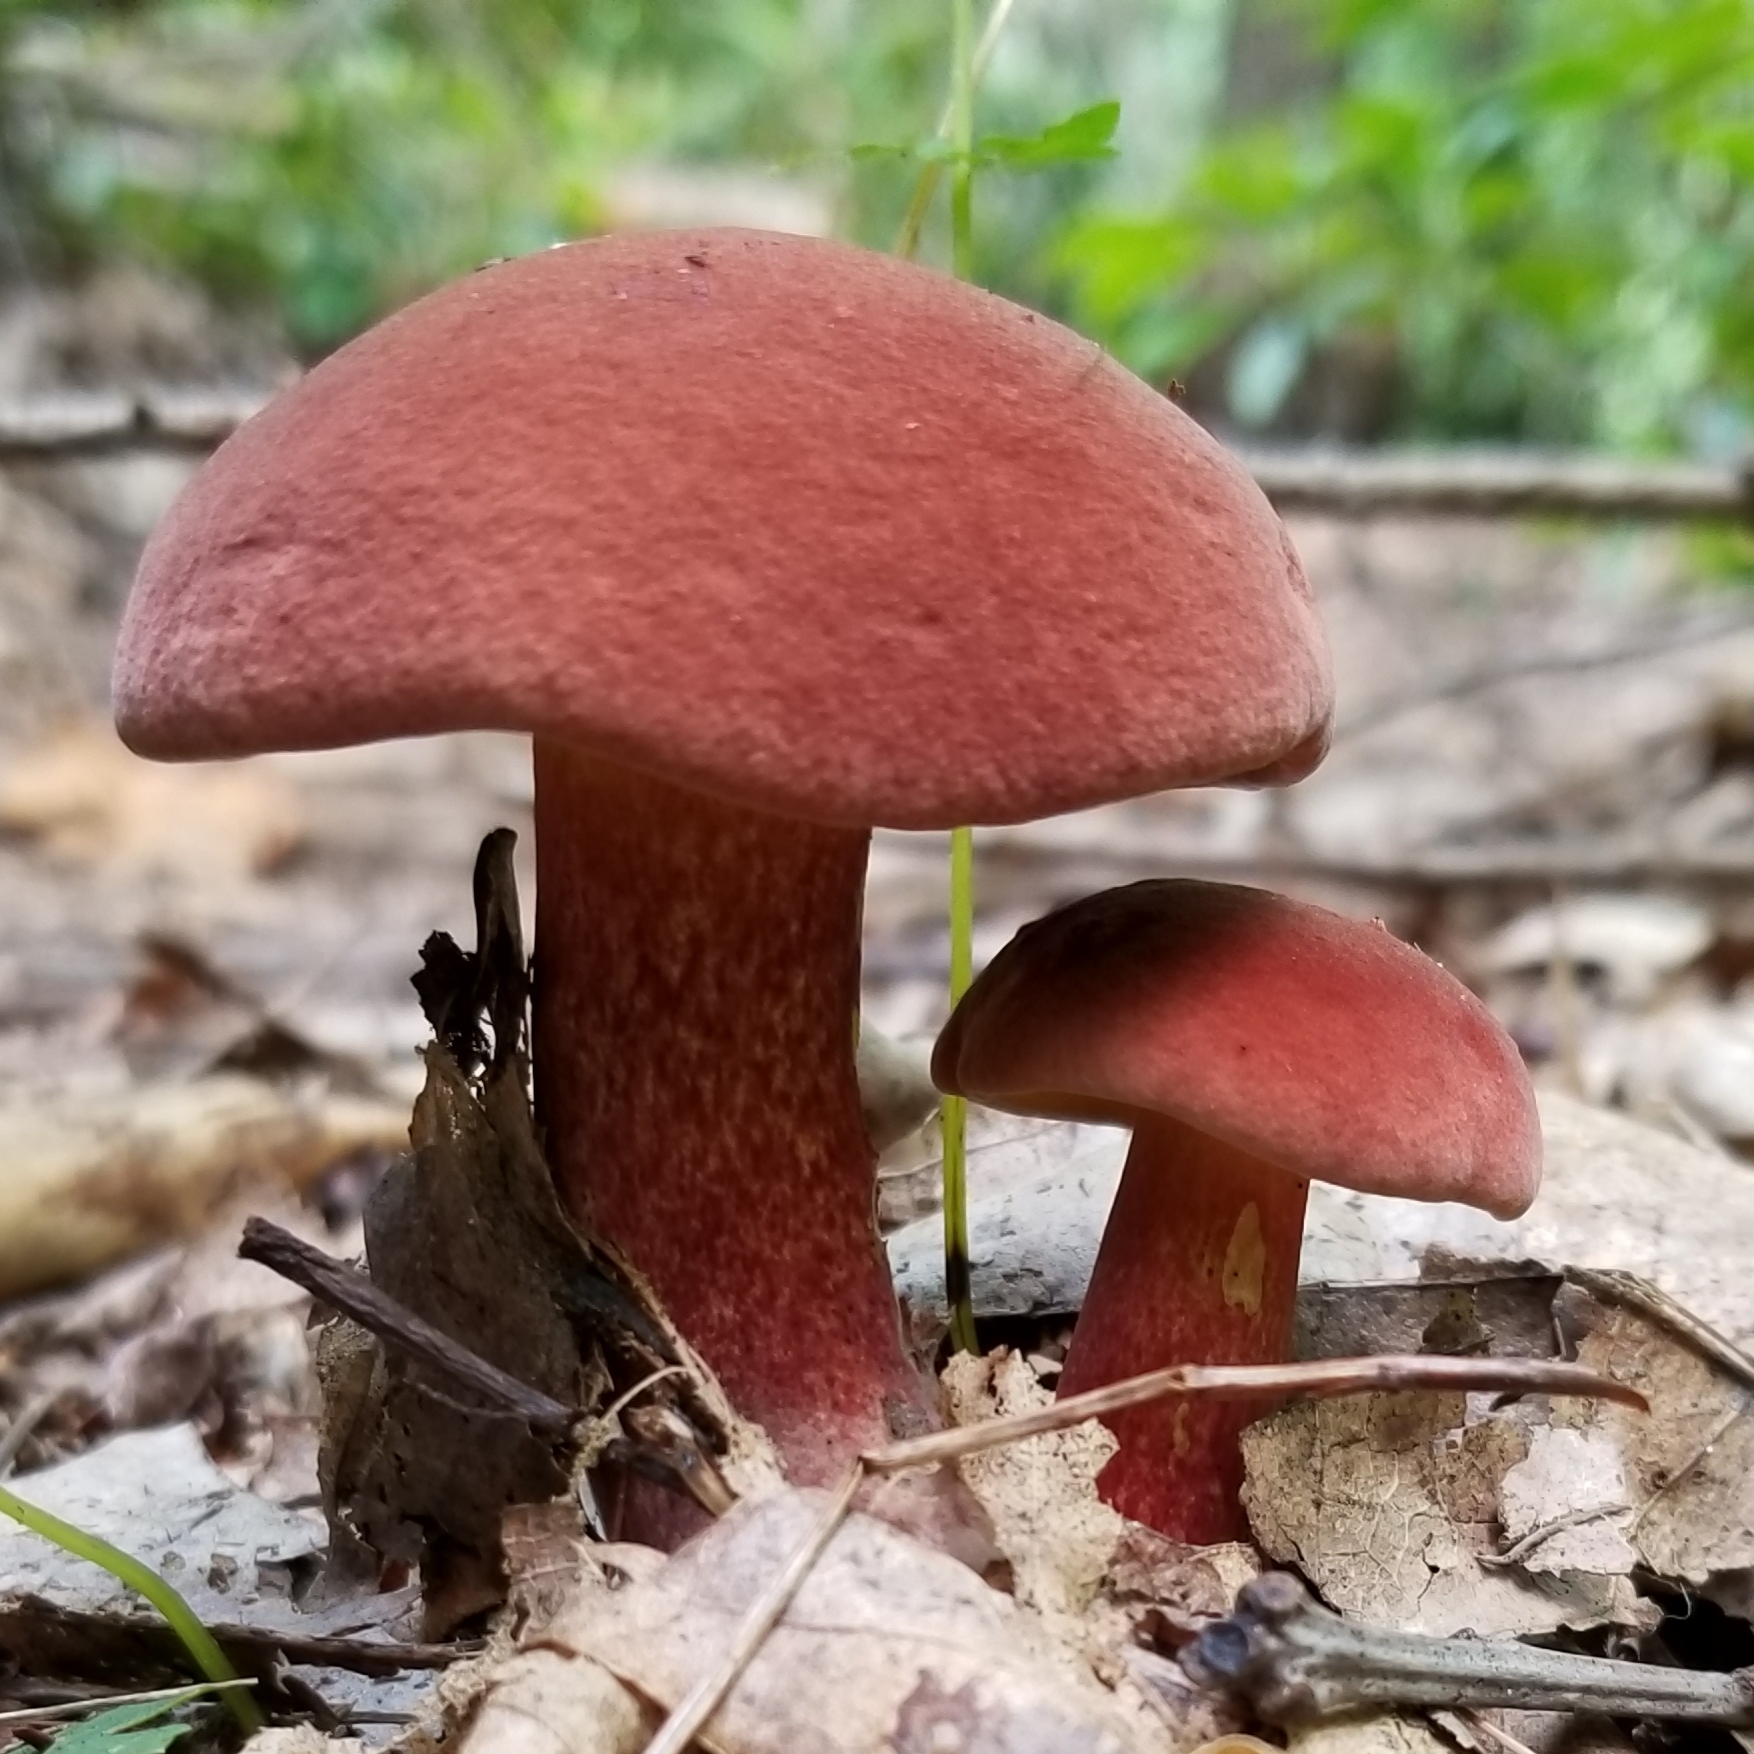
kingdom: Fungi
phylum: Basidiomycota
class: Agaricomycetes
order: Boletales
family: Boletaceae
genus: Baorangia
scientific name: Baorangia bicolor
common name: Two-colored bolete
